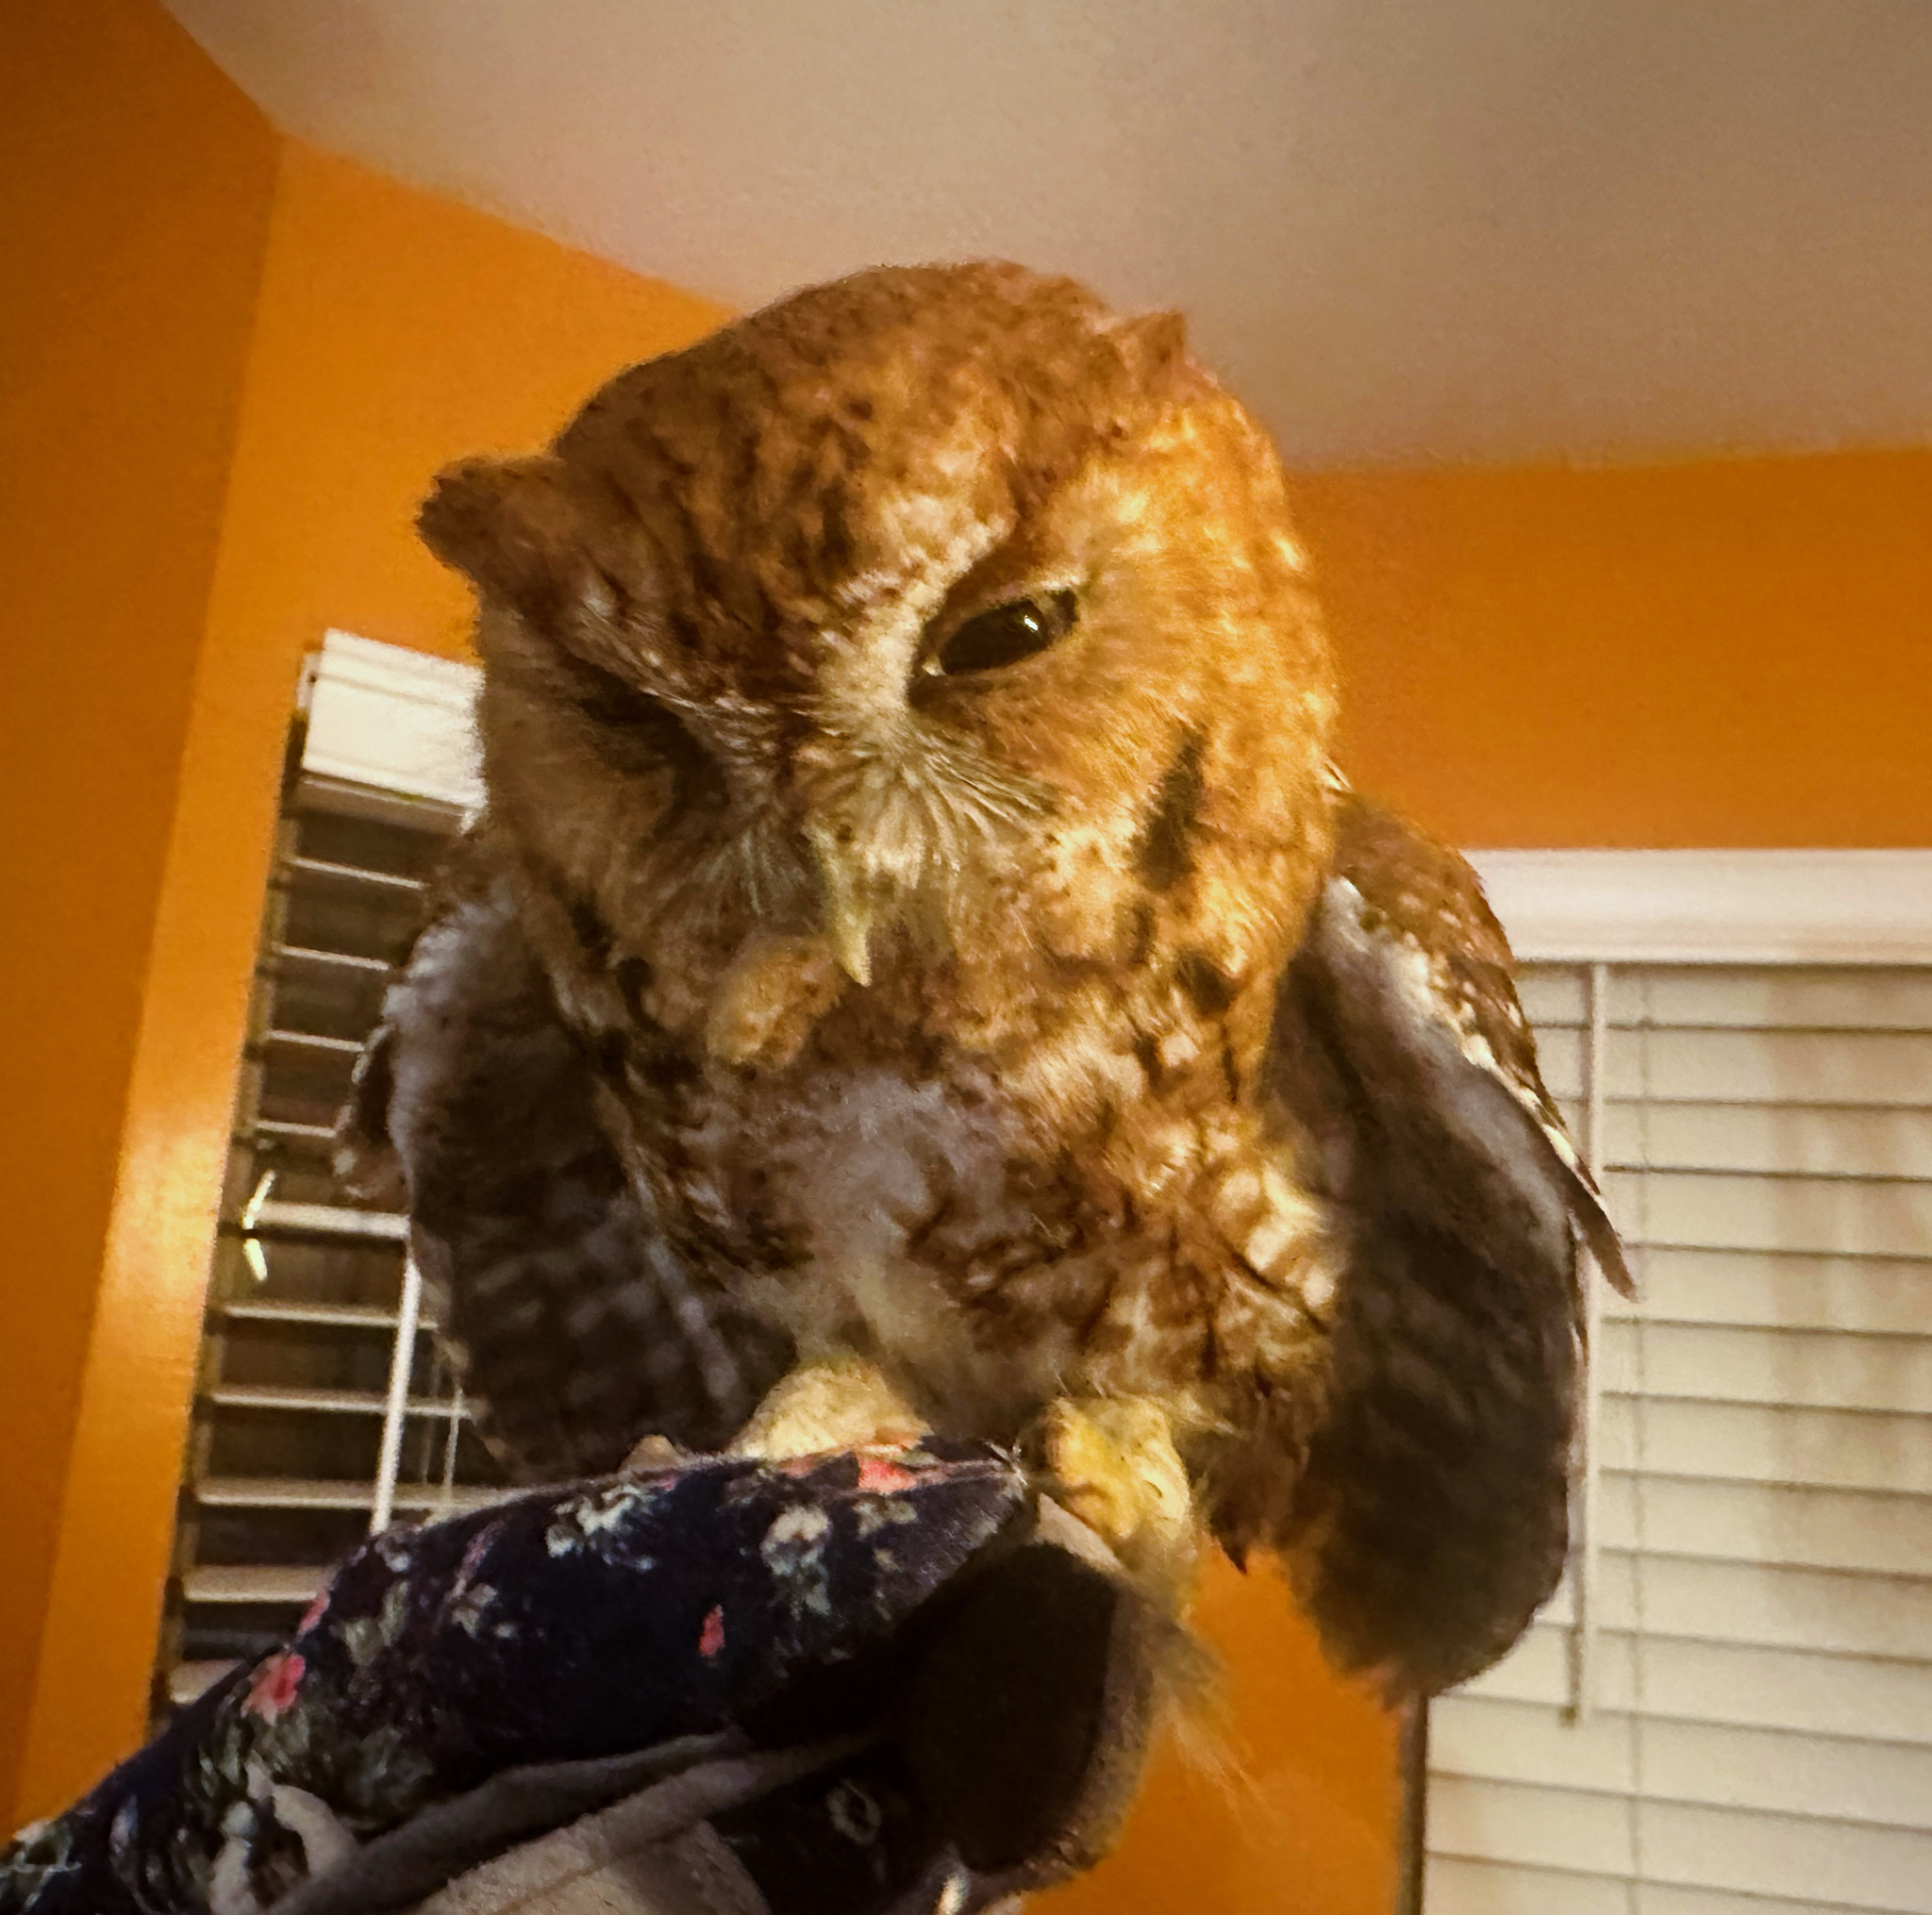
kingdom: Animalia
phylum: Chordata
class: Aves
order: Strigiformes
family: Strigidae
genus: Megascops
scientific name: Megascops asio
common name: Eastern screech-owl
